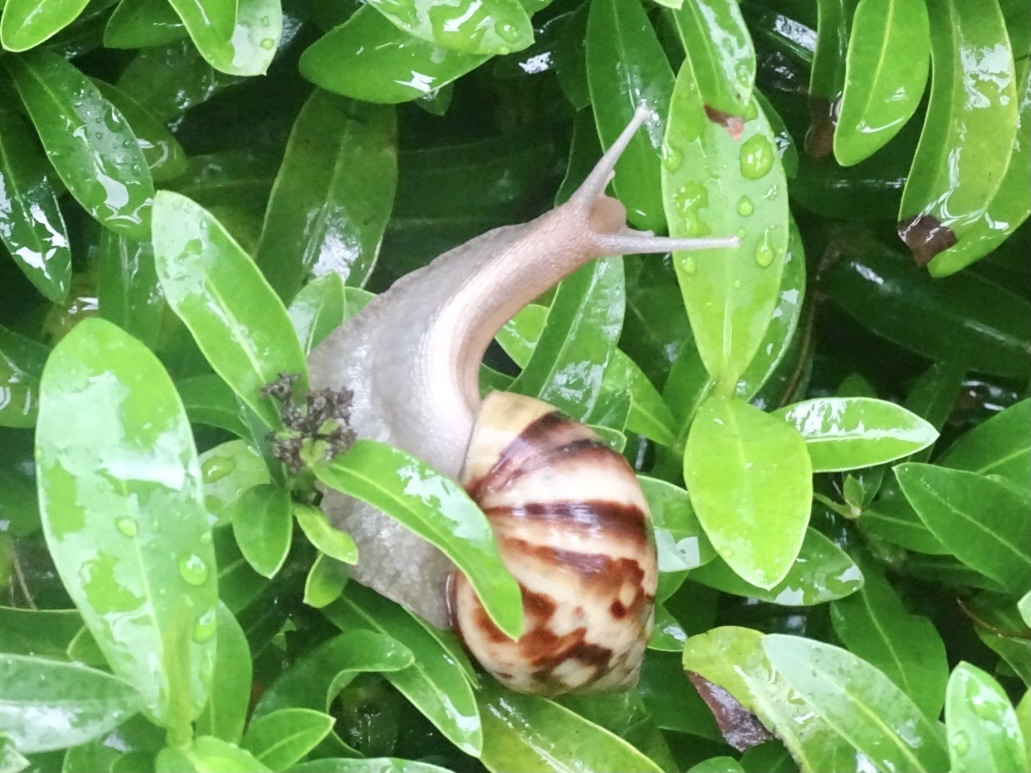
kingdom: Animalia
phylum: Mollusca
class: Gastropoda
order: Stylommatophora
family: Achatinidae
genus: Lissachatina
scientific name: Lissachatina fulica
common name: Giant african snail
